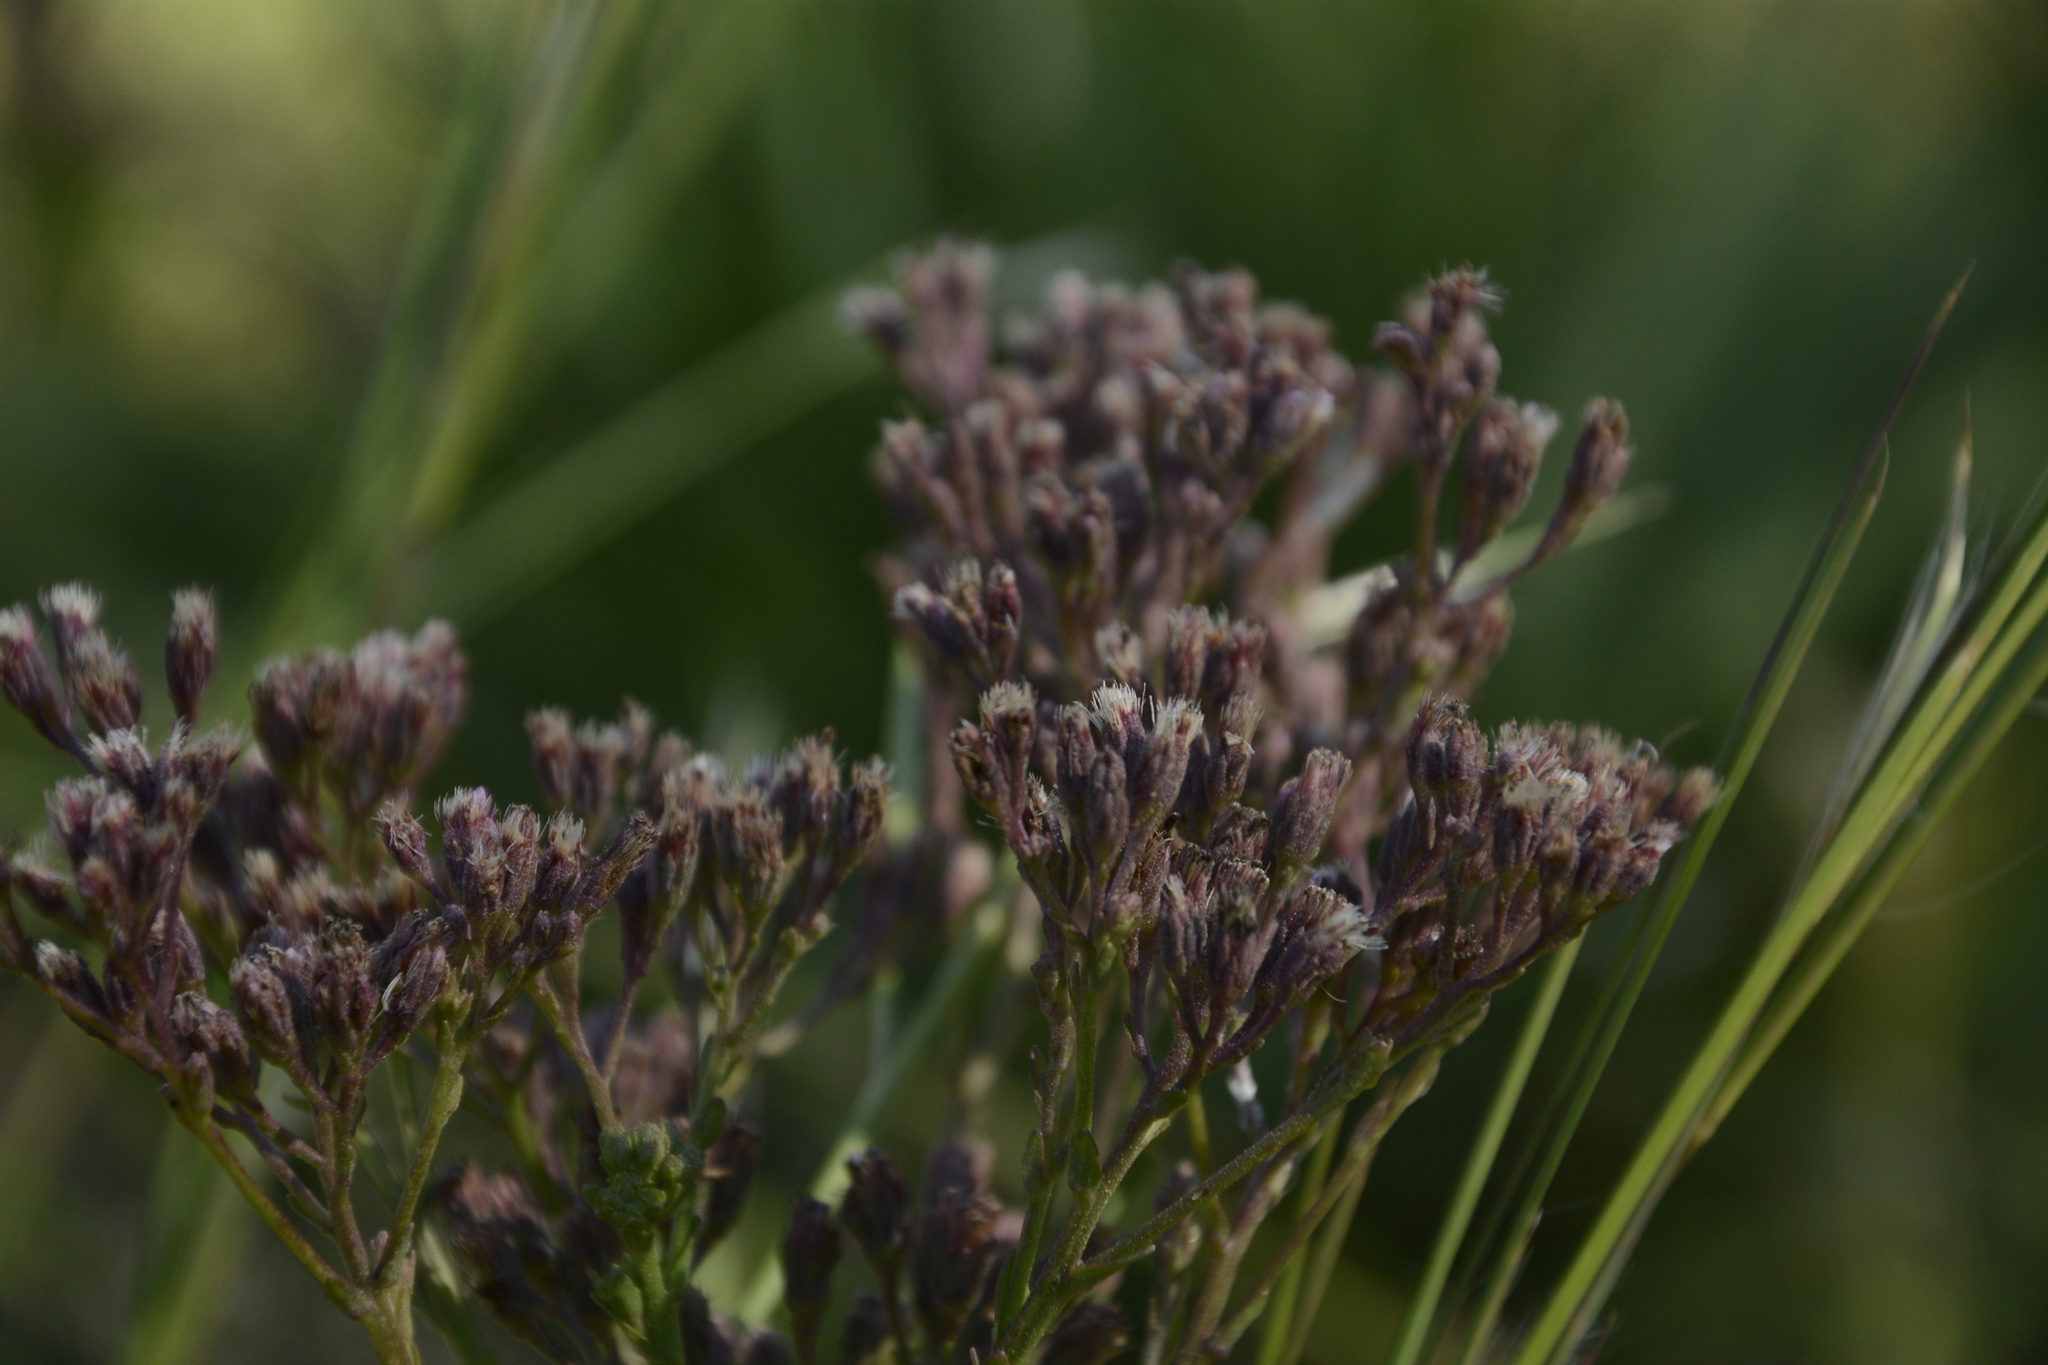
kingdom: Plantae
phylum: Tracheophyta
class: Magnoliopsida
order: Asterales
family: Asteraceae
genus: Carphephorus
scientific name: Carphephorus odoratissimus
